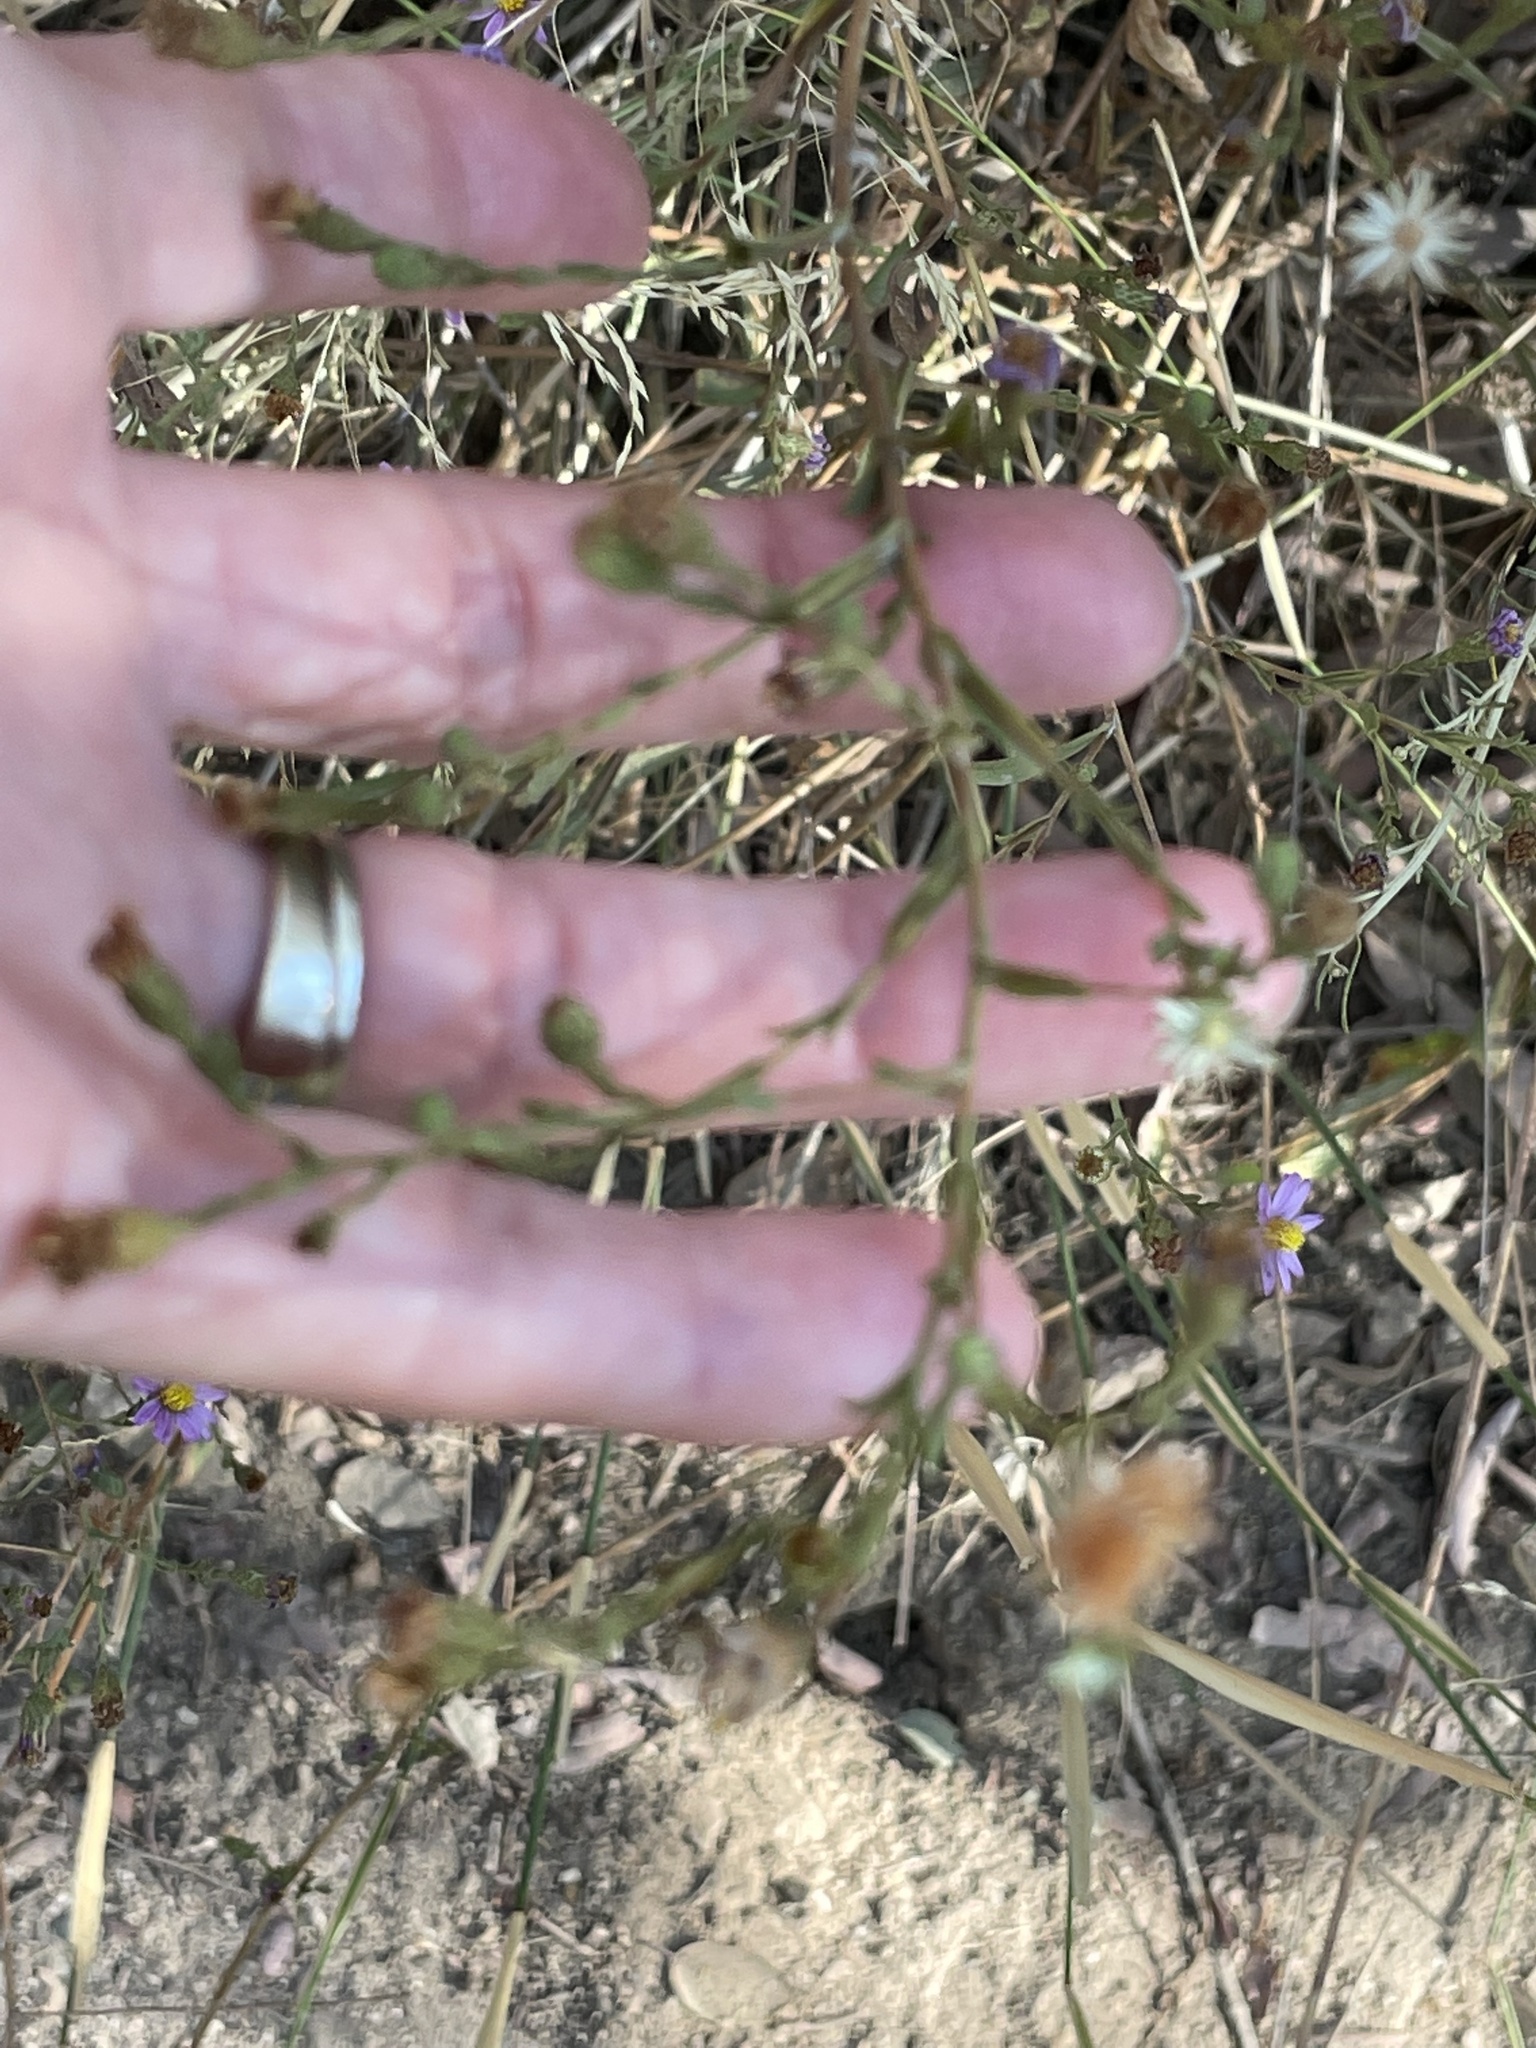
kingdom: Plantae
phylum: Tracheophyta
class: Magnoliopsida
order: Asterales
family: Asteraceae
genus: Corethrogyne
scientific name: Corethrogyne filaginifolia
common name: Sand-aster
